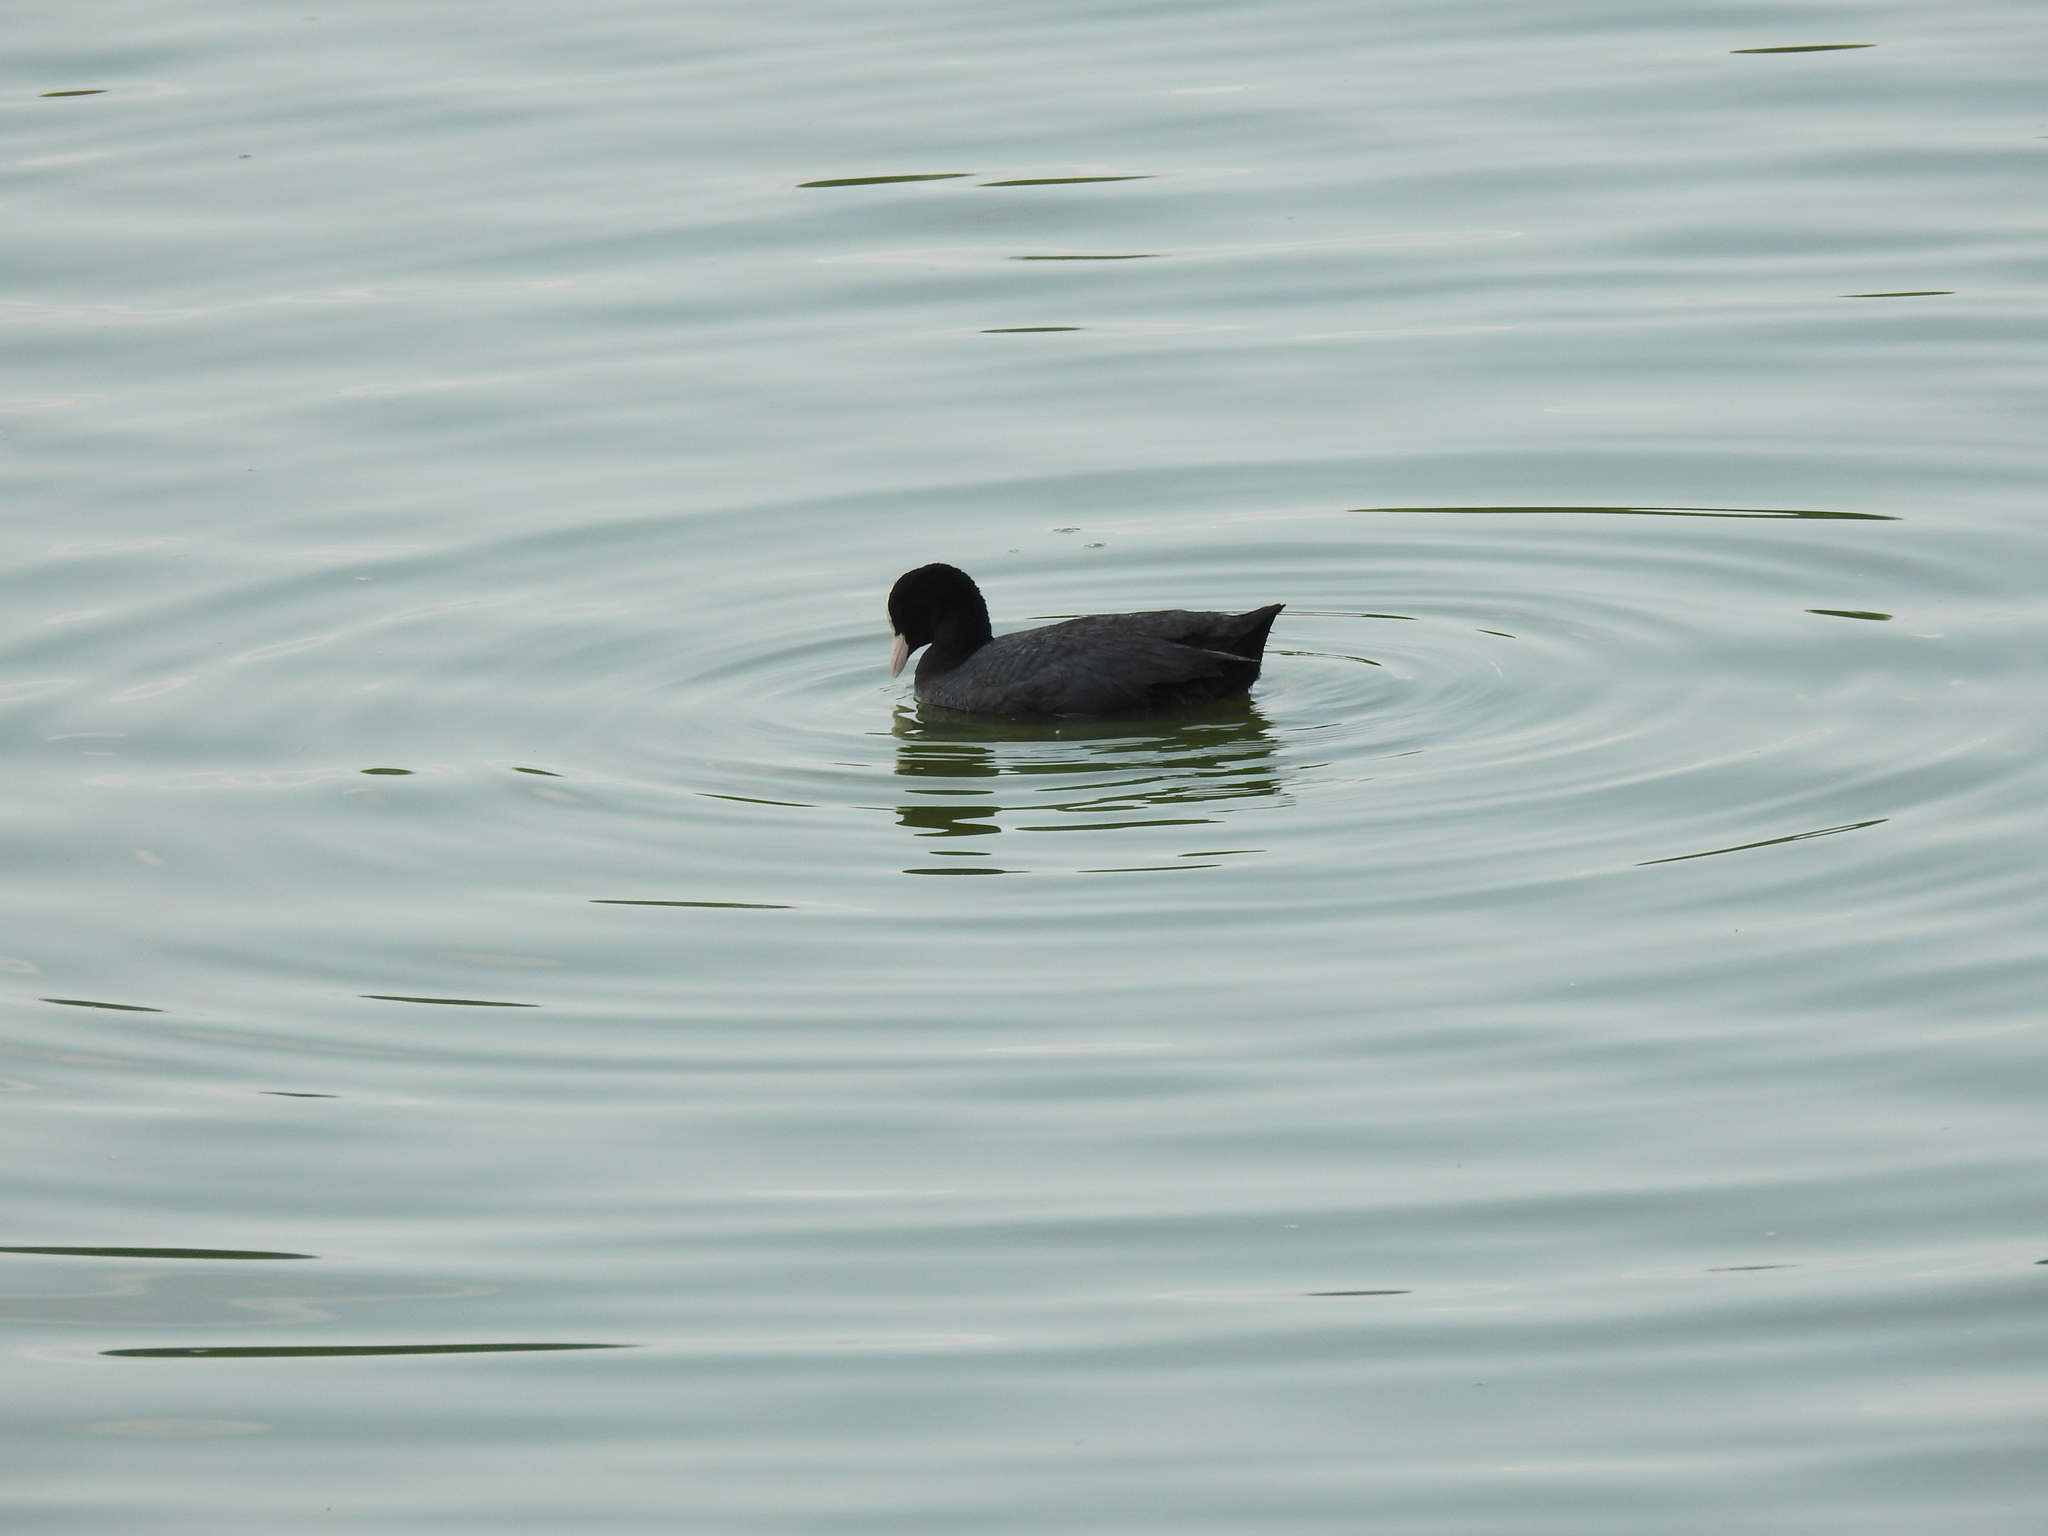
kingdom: Animalia
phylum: Chordata
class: Aves
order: Gruiformes
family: Rallidae
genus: Fulica
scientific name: Fulica atra
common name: Eurasian coot
